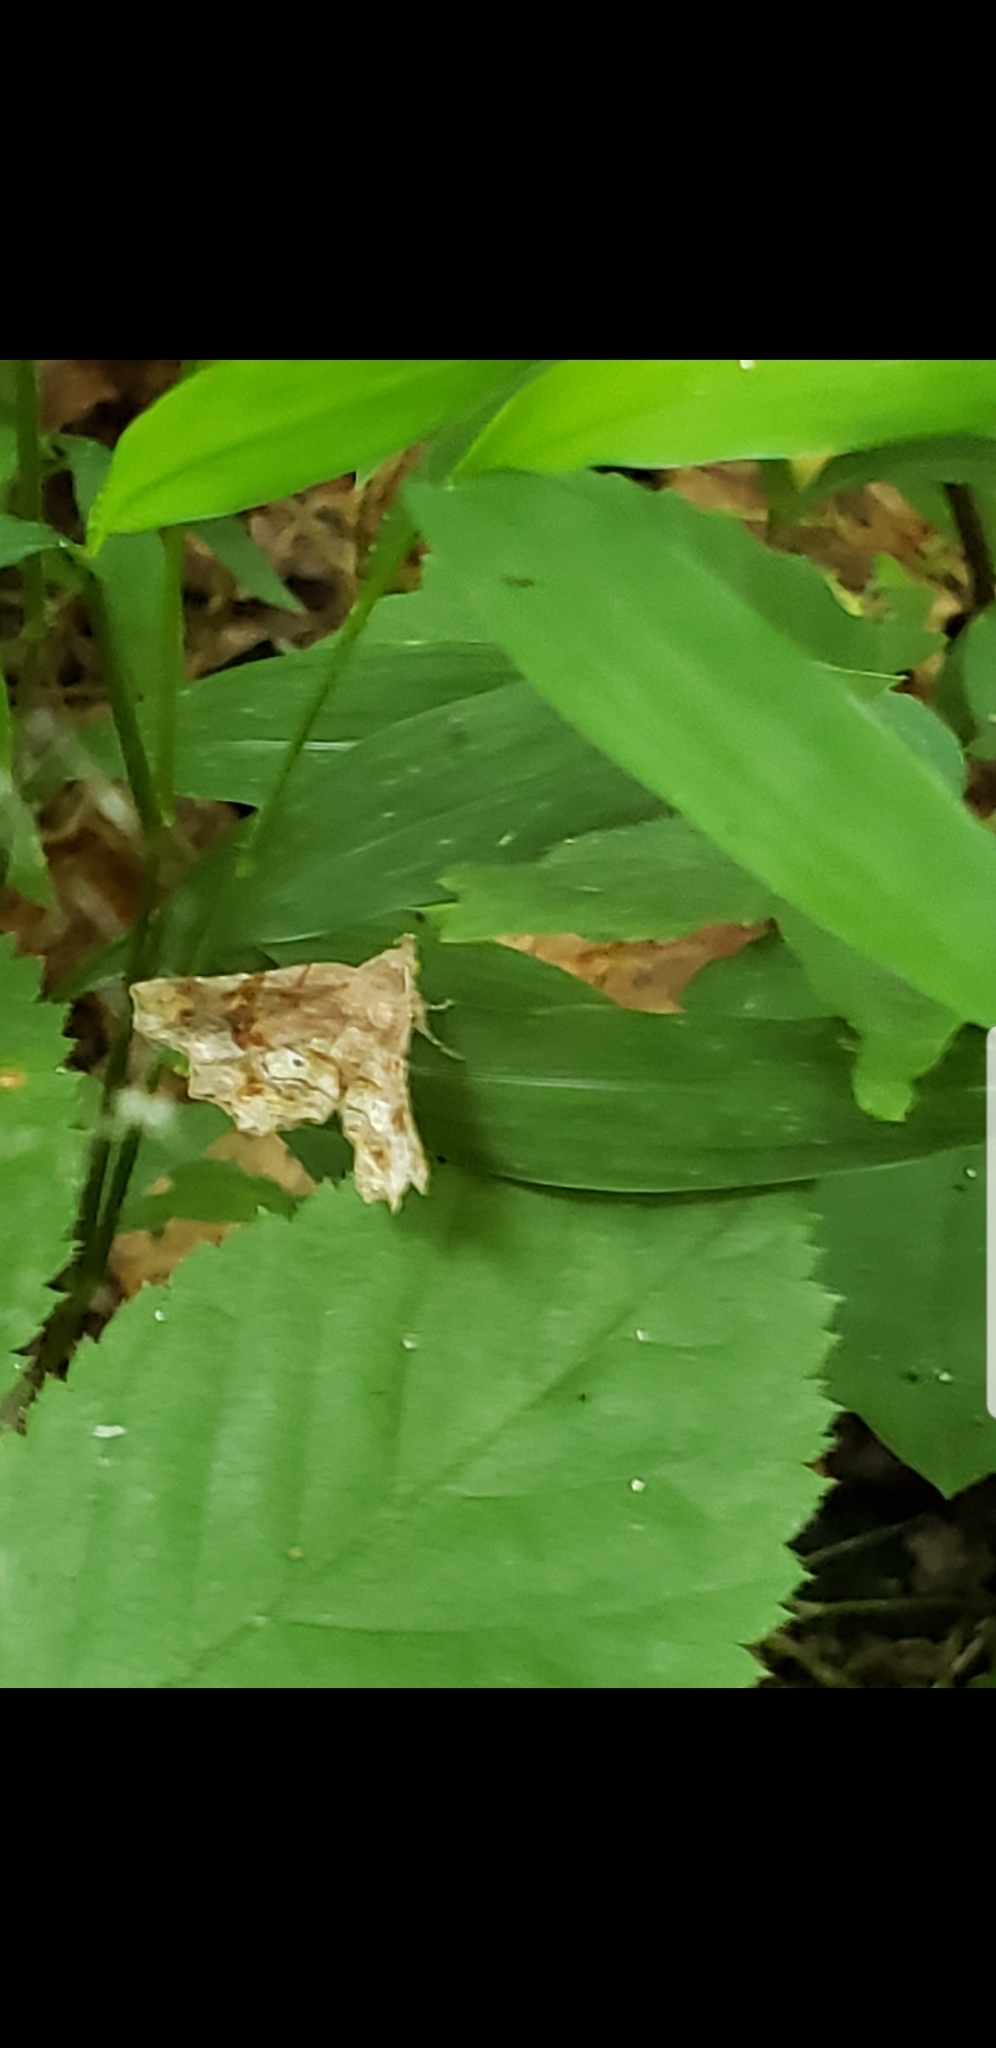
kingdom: Animalia
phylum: Arthropoda
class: Insecta
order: Lepidoptera
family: Erebidae
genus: Pangrapta
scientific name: Pangrapta decoralis
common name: Decorated owlet
